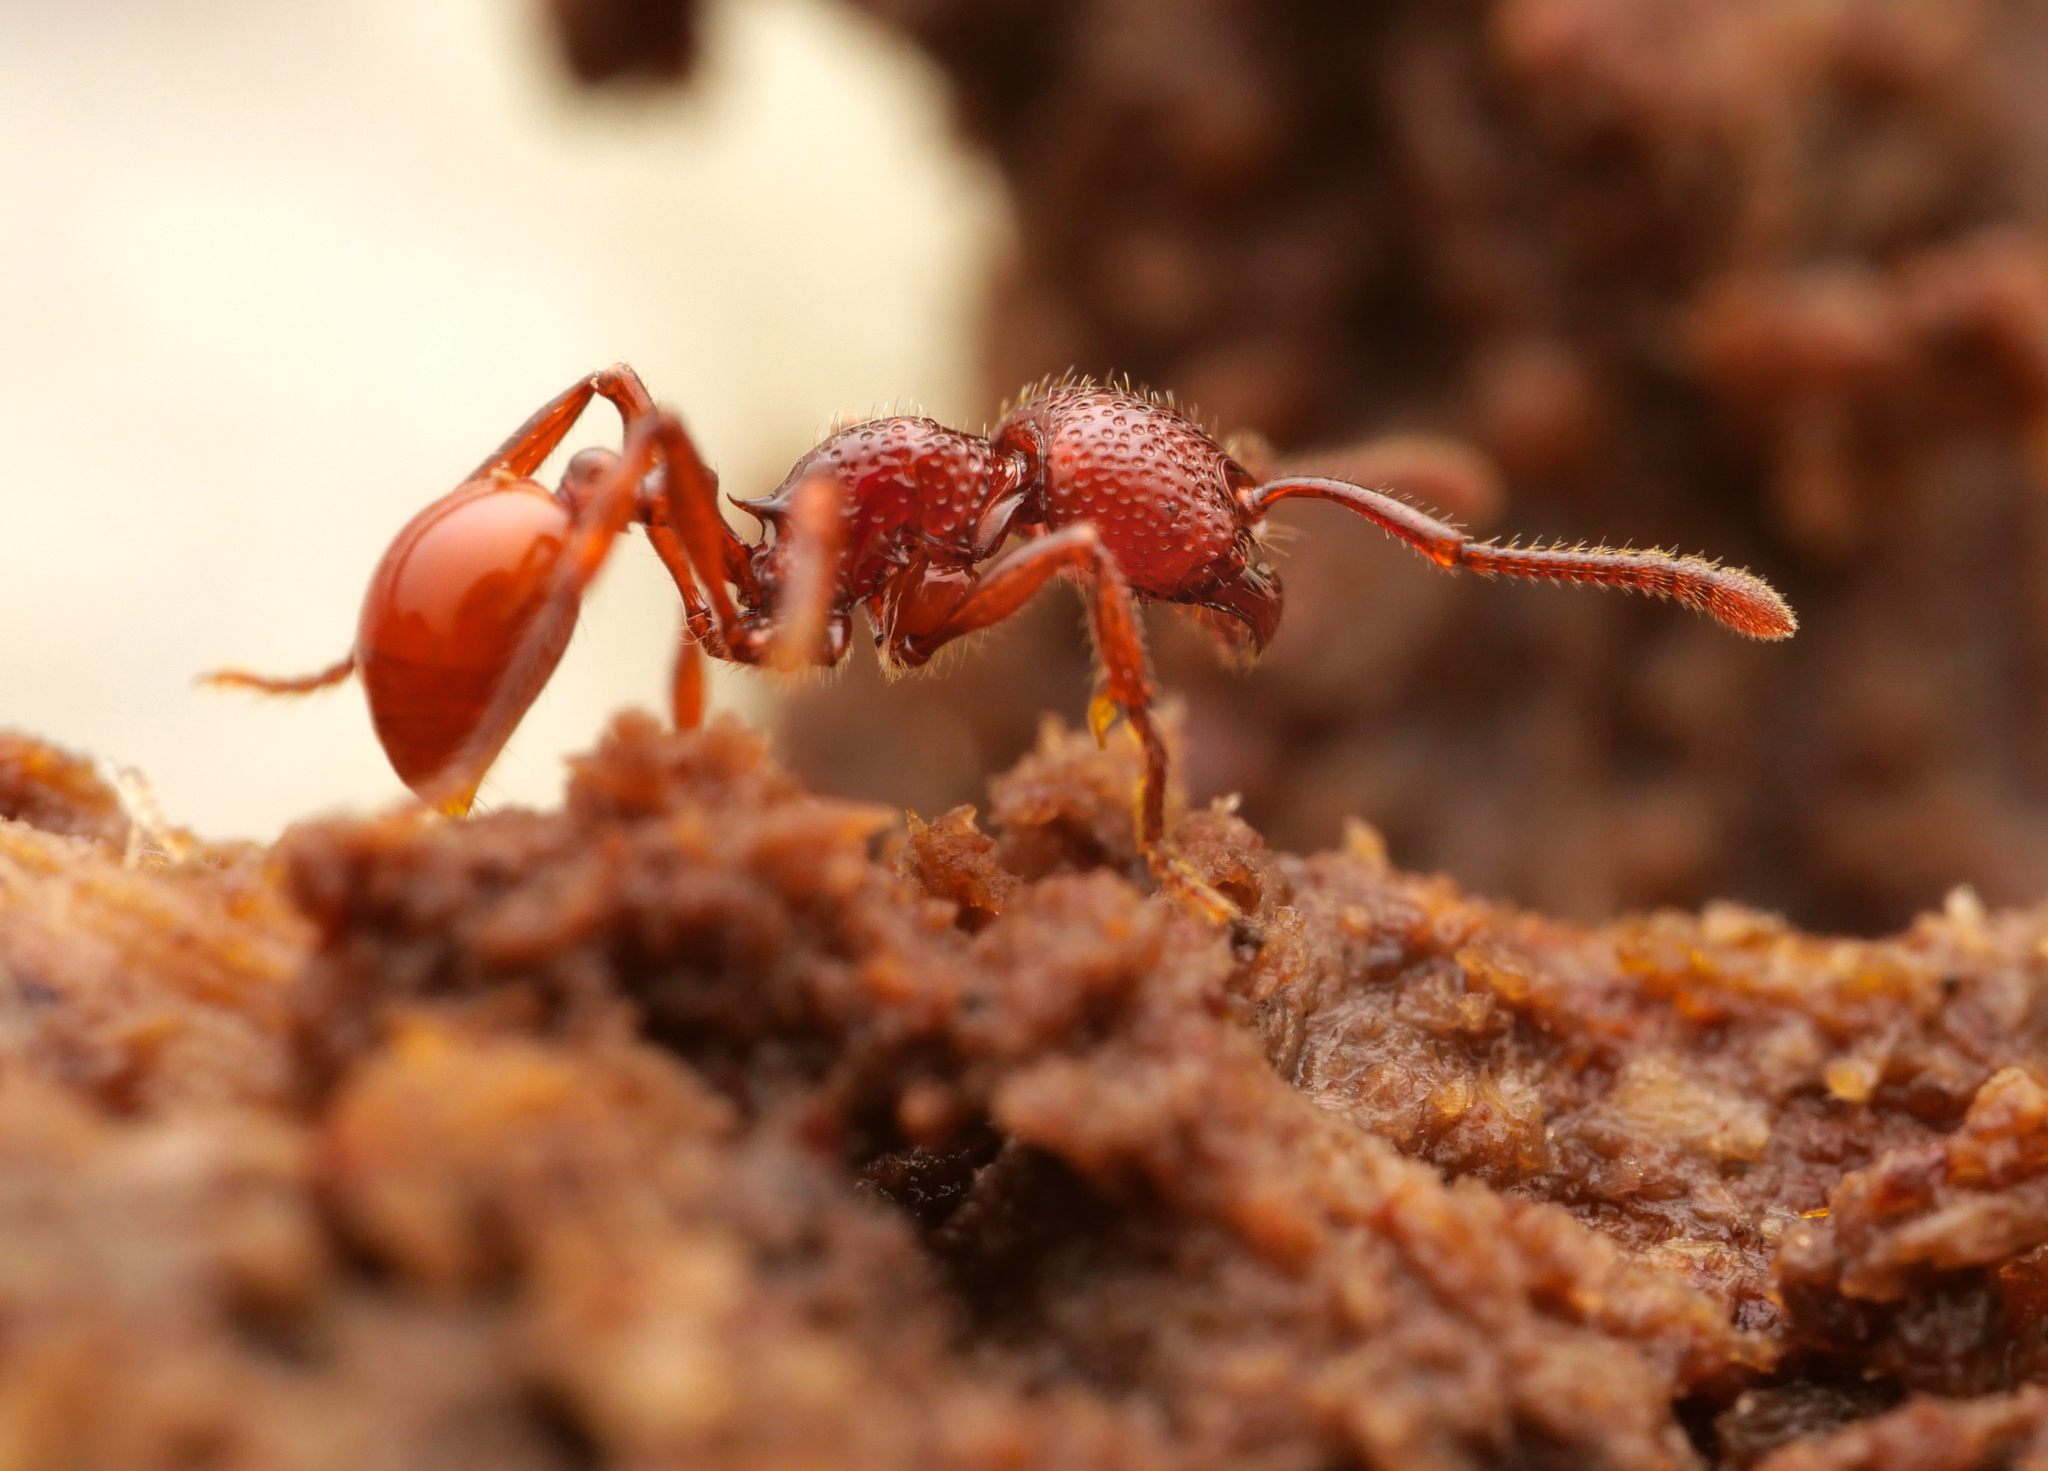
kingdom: Animalia
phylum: Arthropoda
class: Insecta
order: Hymenoptera
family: Formicidae
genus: Pristomyrmex
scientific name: Pristomyrmex picteti
